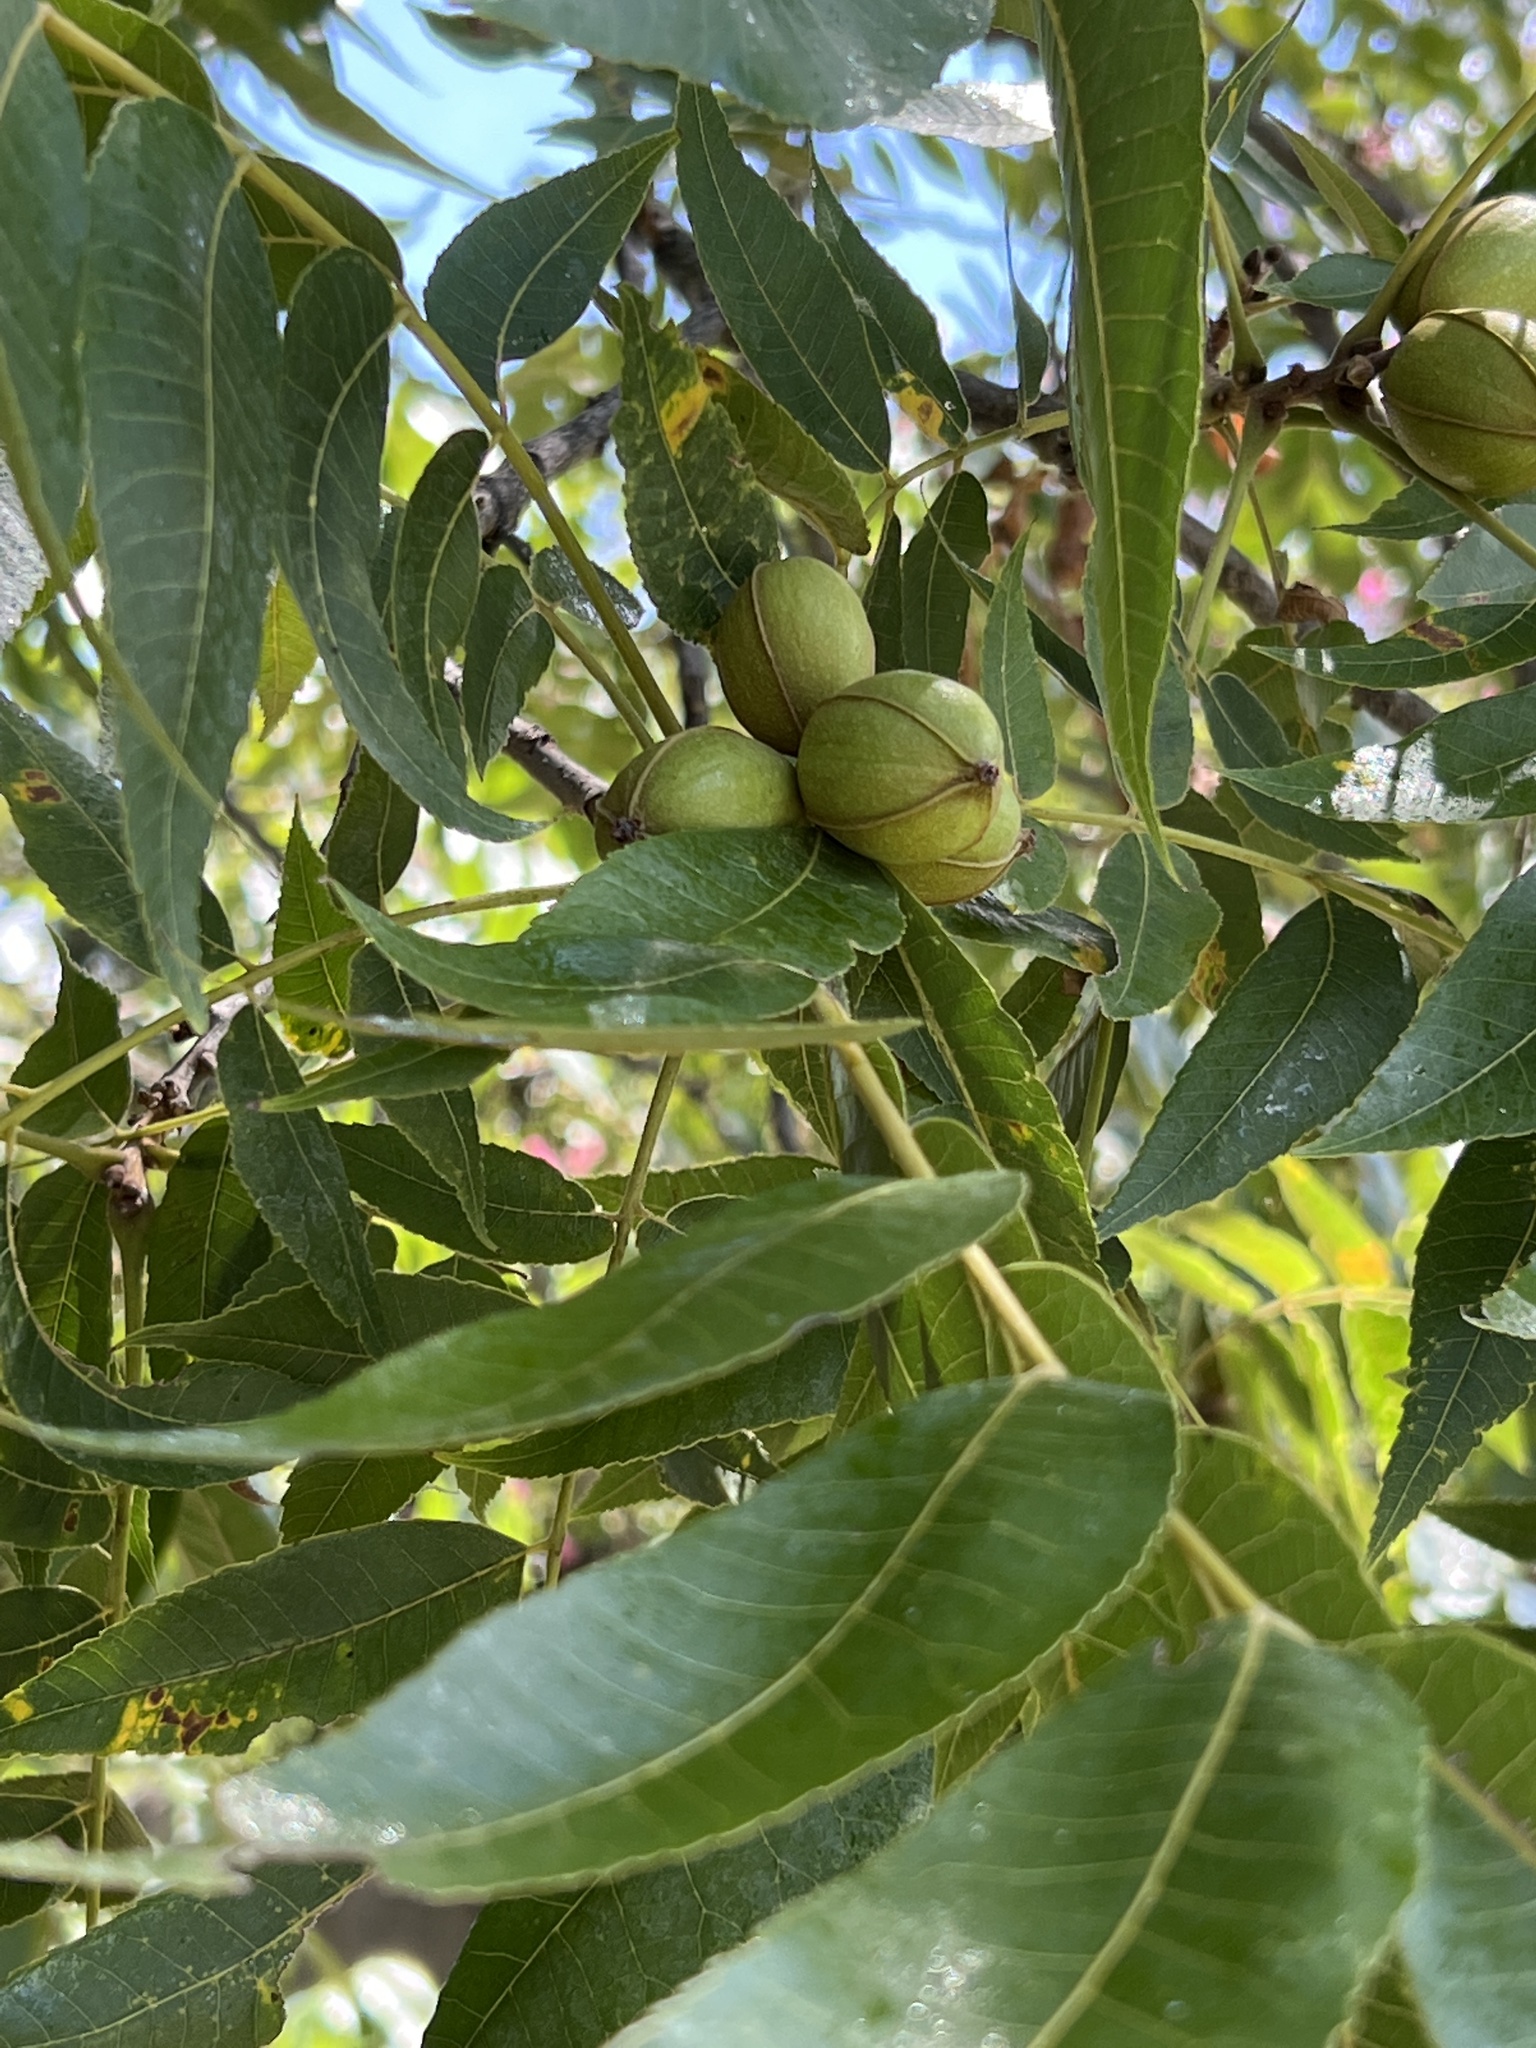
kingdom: Plantae
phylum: Tracheophyta
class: Magnoliopsida
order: Fagales
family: Juglandaceae
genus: Carya
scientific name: Carya illinoinensis
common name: Pecan
